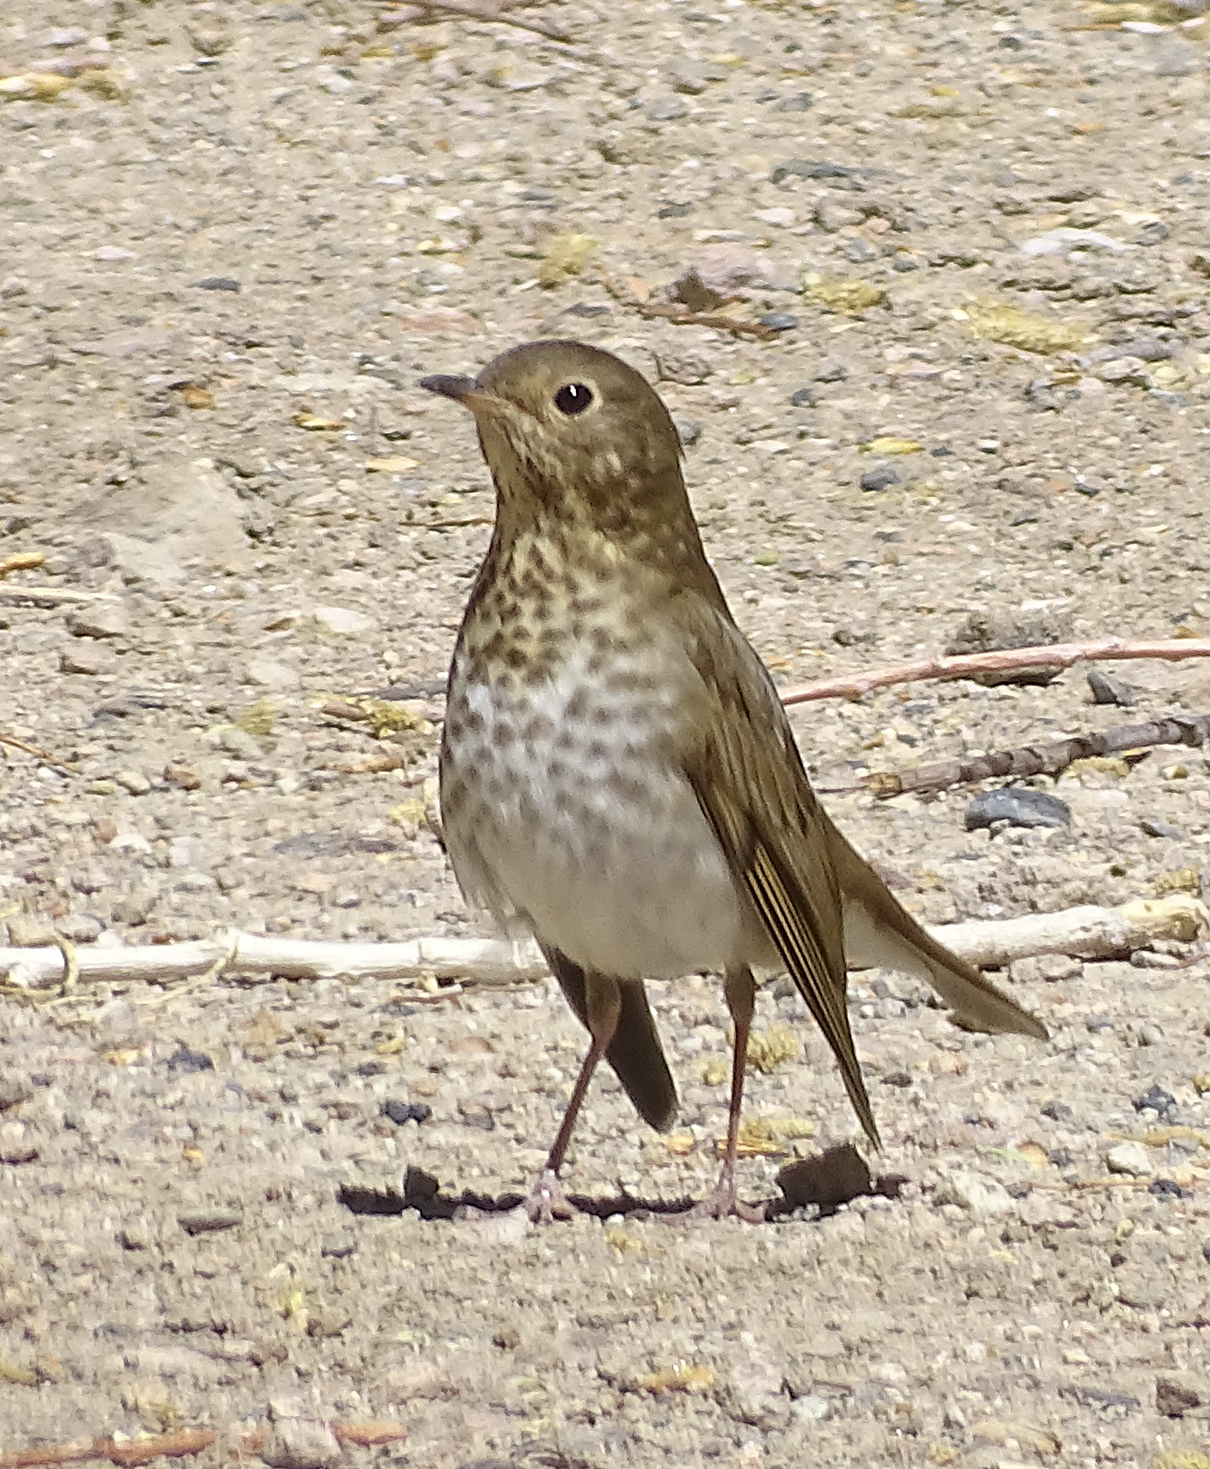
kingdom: Animalia
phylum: Chordata
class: Aves
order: Passeriformes
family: Turdidae
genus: Catharus
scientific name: Catharus ustulatus
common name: Swainson's thrush
